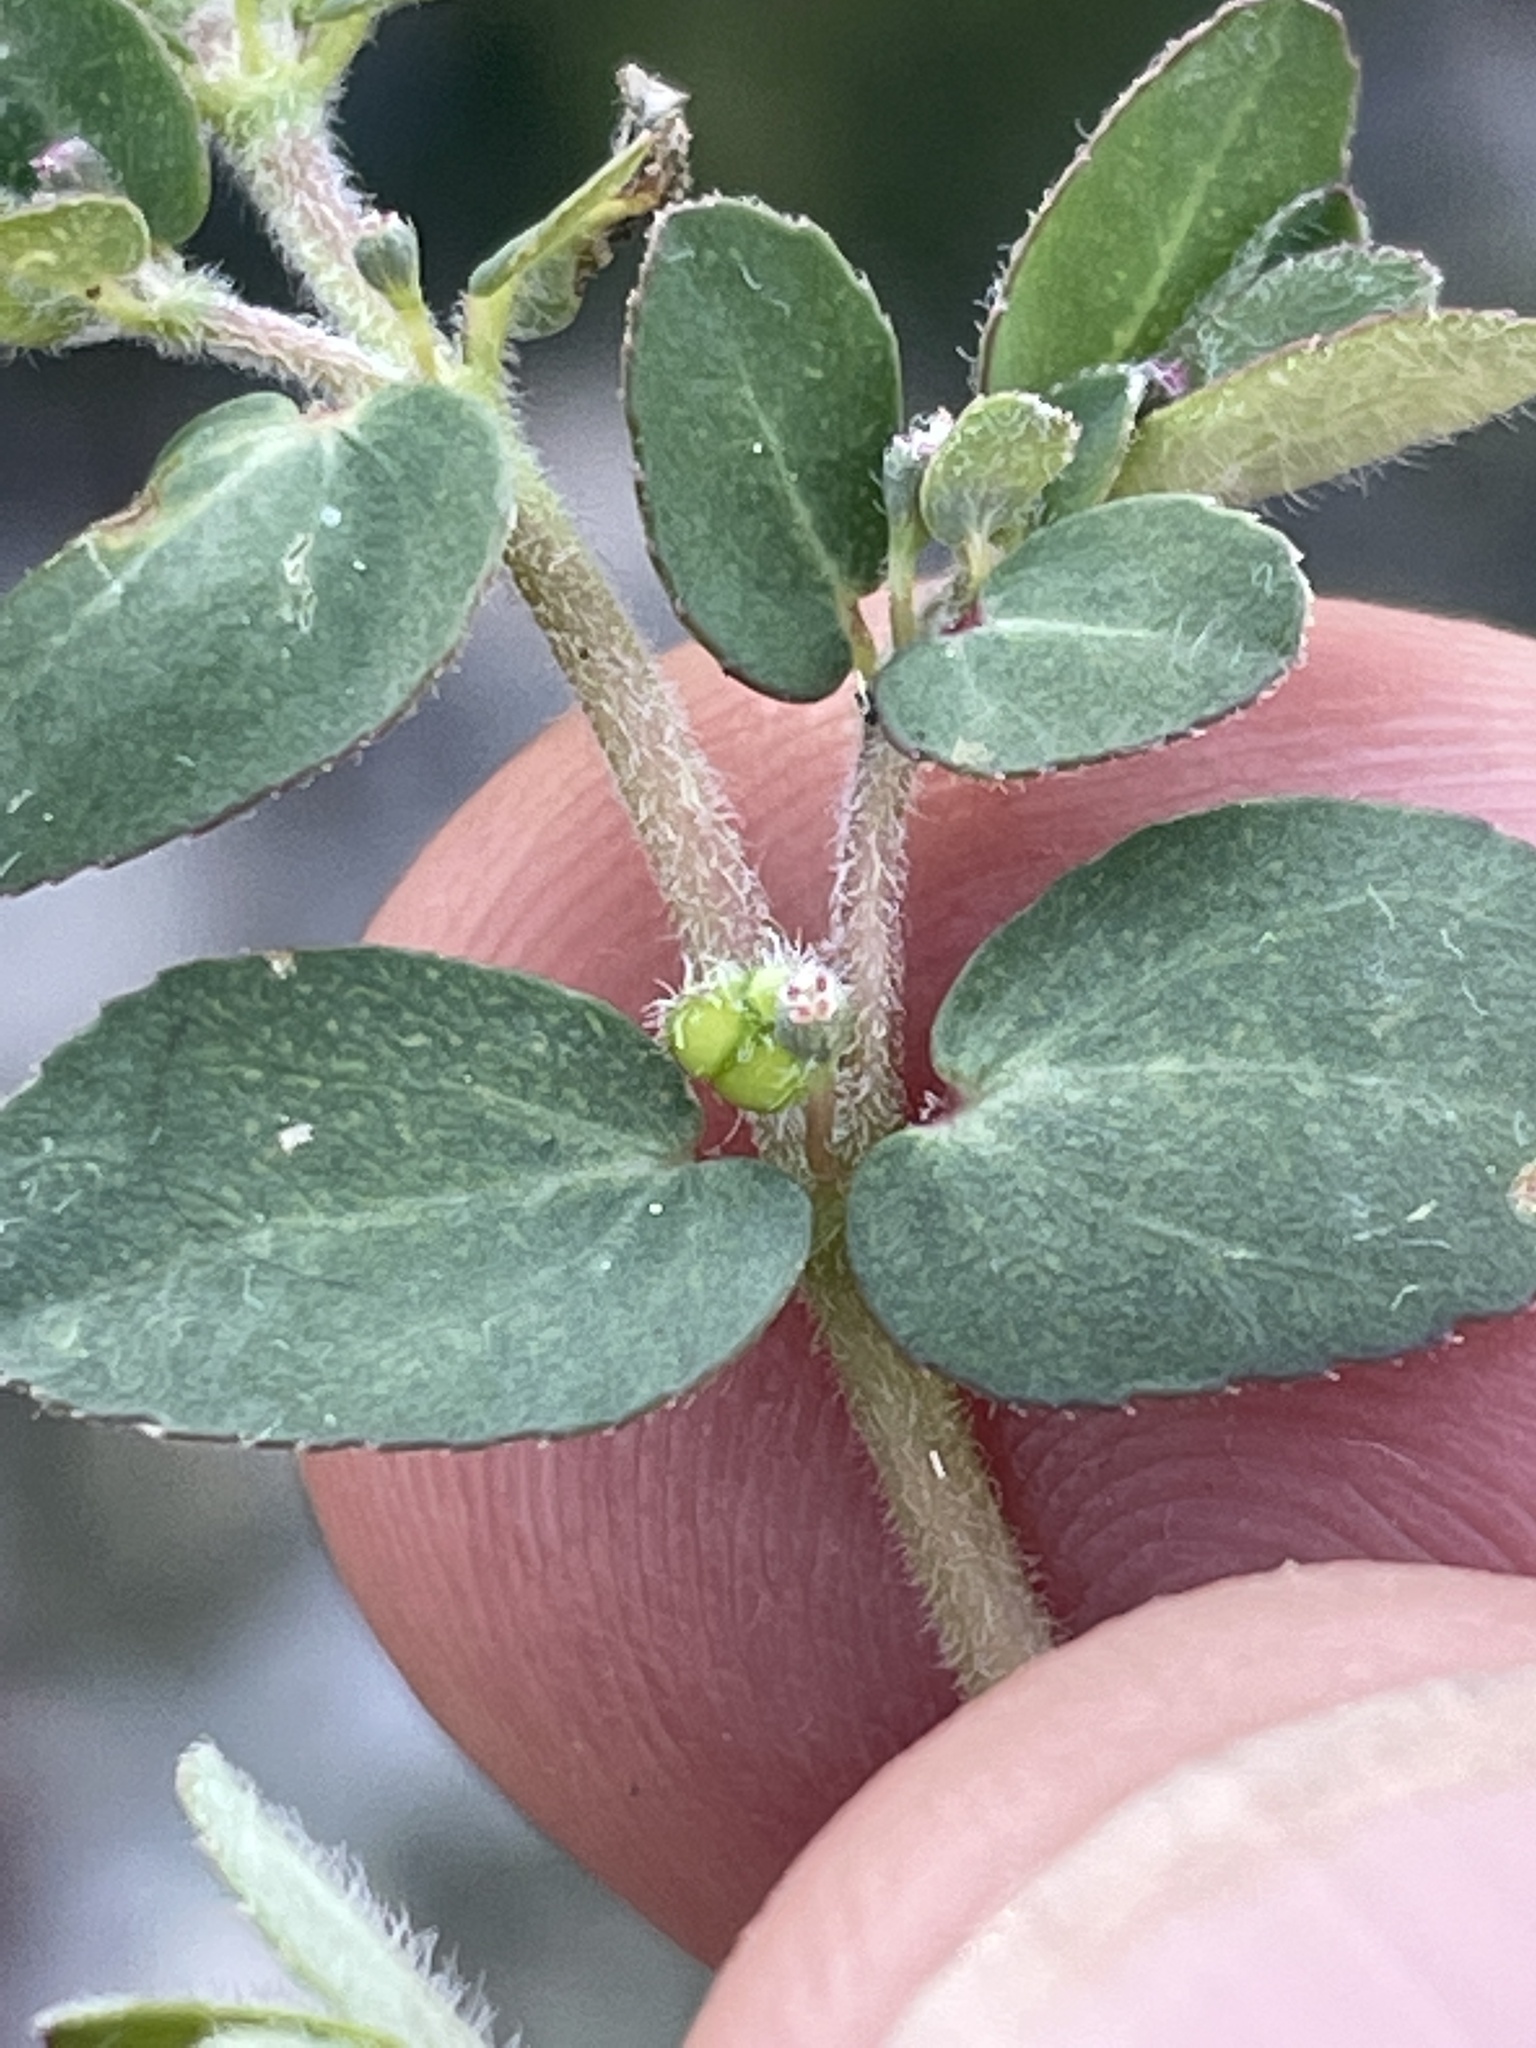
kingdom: Plantae
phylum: Tracheophyta
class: Magnoliopsida
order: Malpighiales
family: Euphorbiaceae
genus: Euphorbia
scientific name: Euphorbia prostrata
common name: Prostrate sandmat
